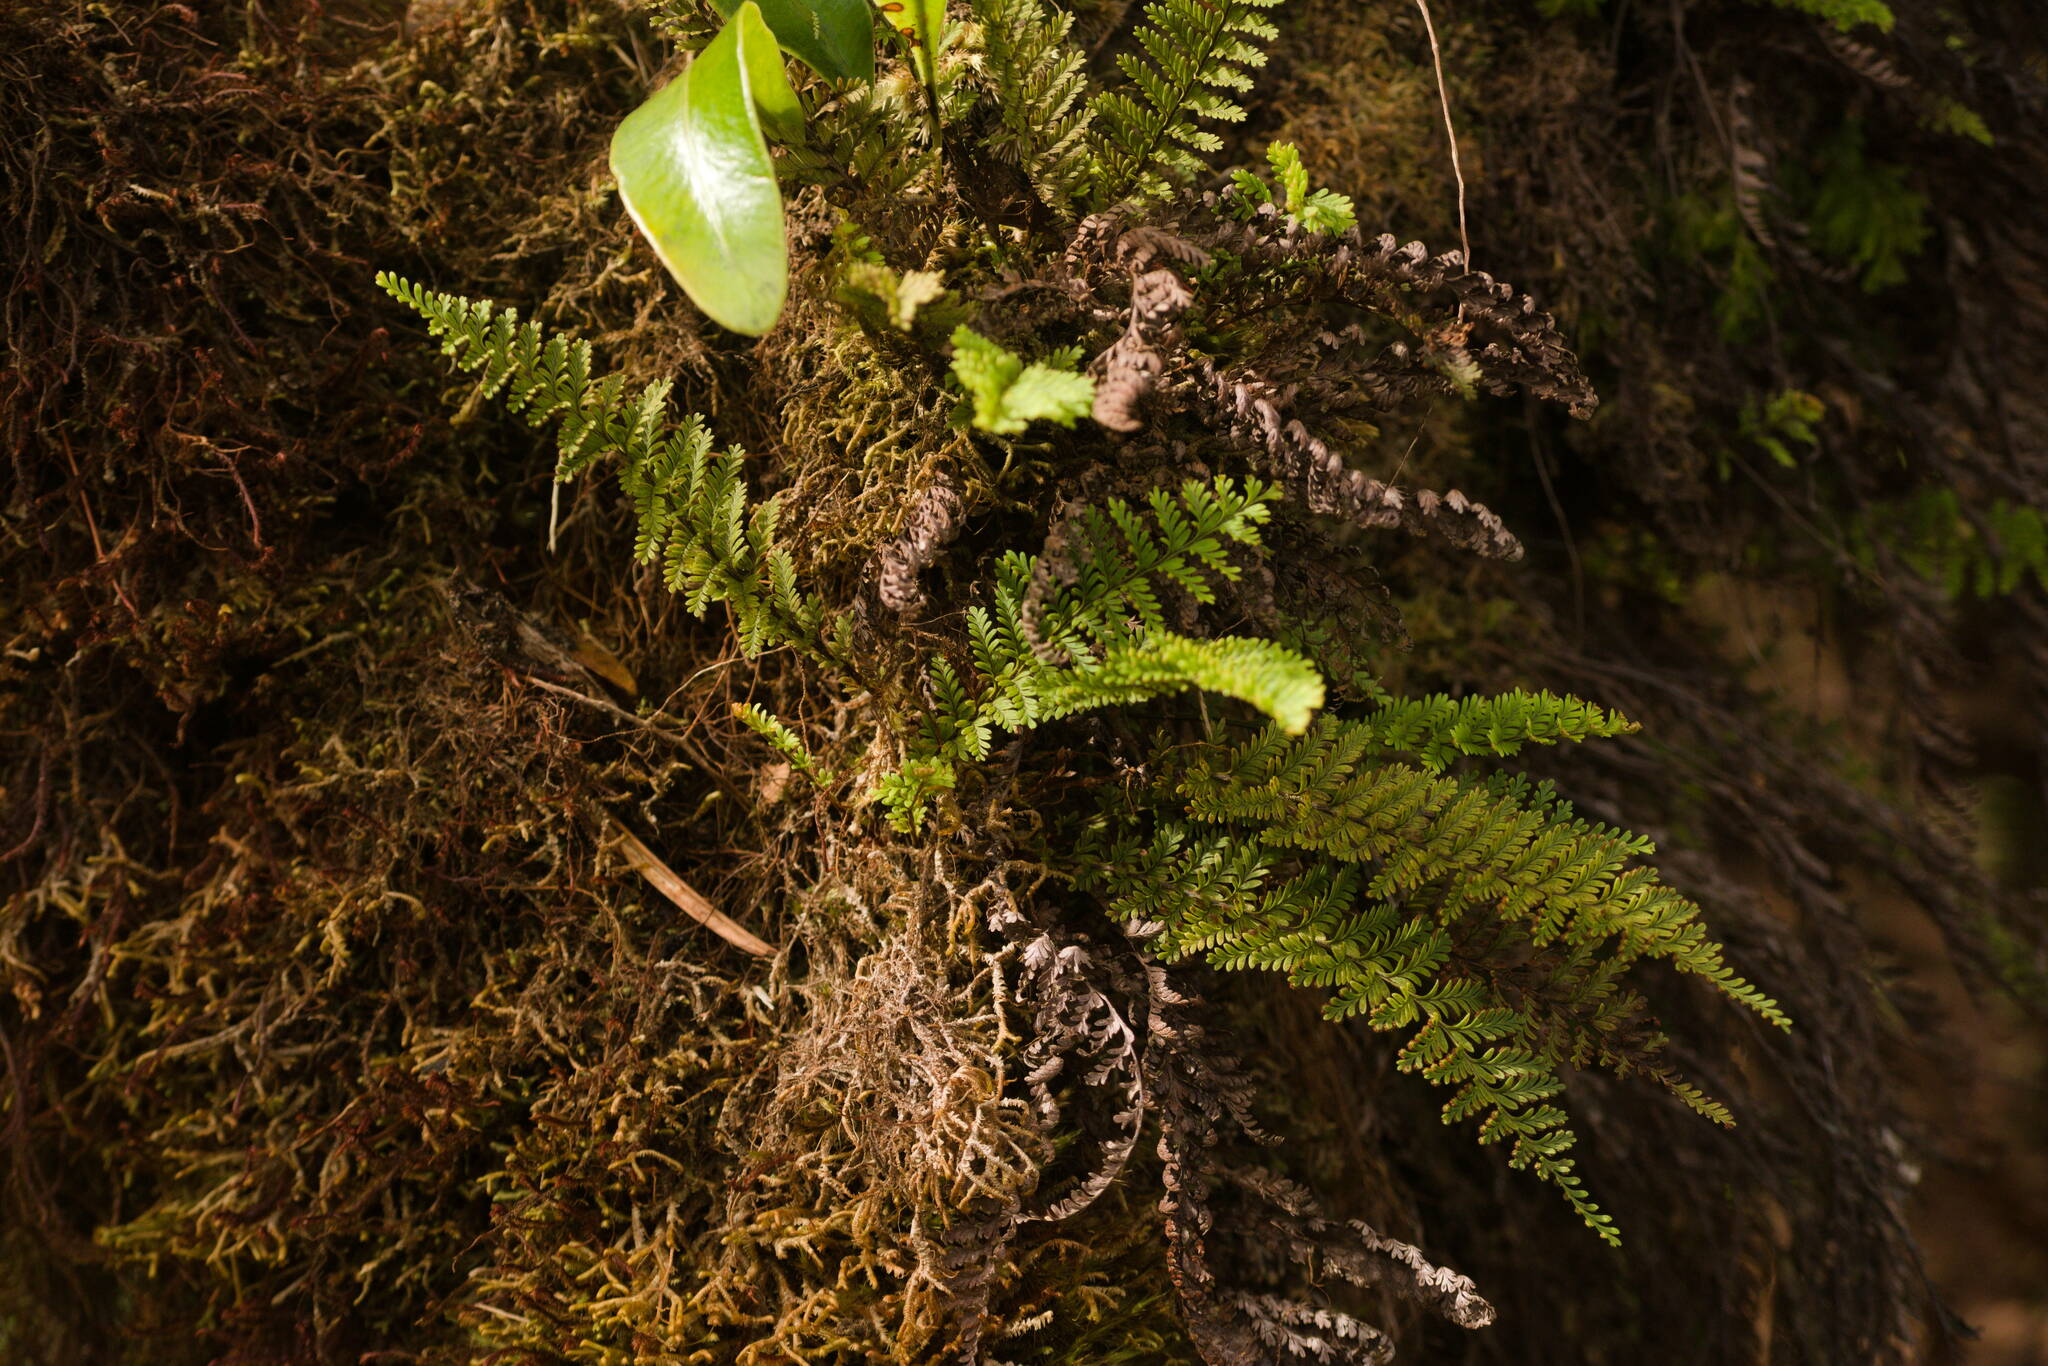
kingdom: Plantae
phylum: Tracheophyta
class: Polypodiopsida
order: Polypodiales
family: Polypodiaceae
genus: Adenophorus
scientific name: Adenophorus tamariscinus
